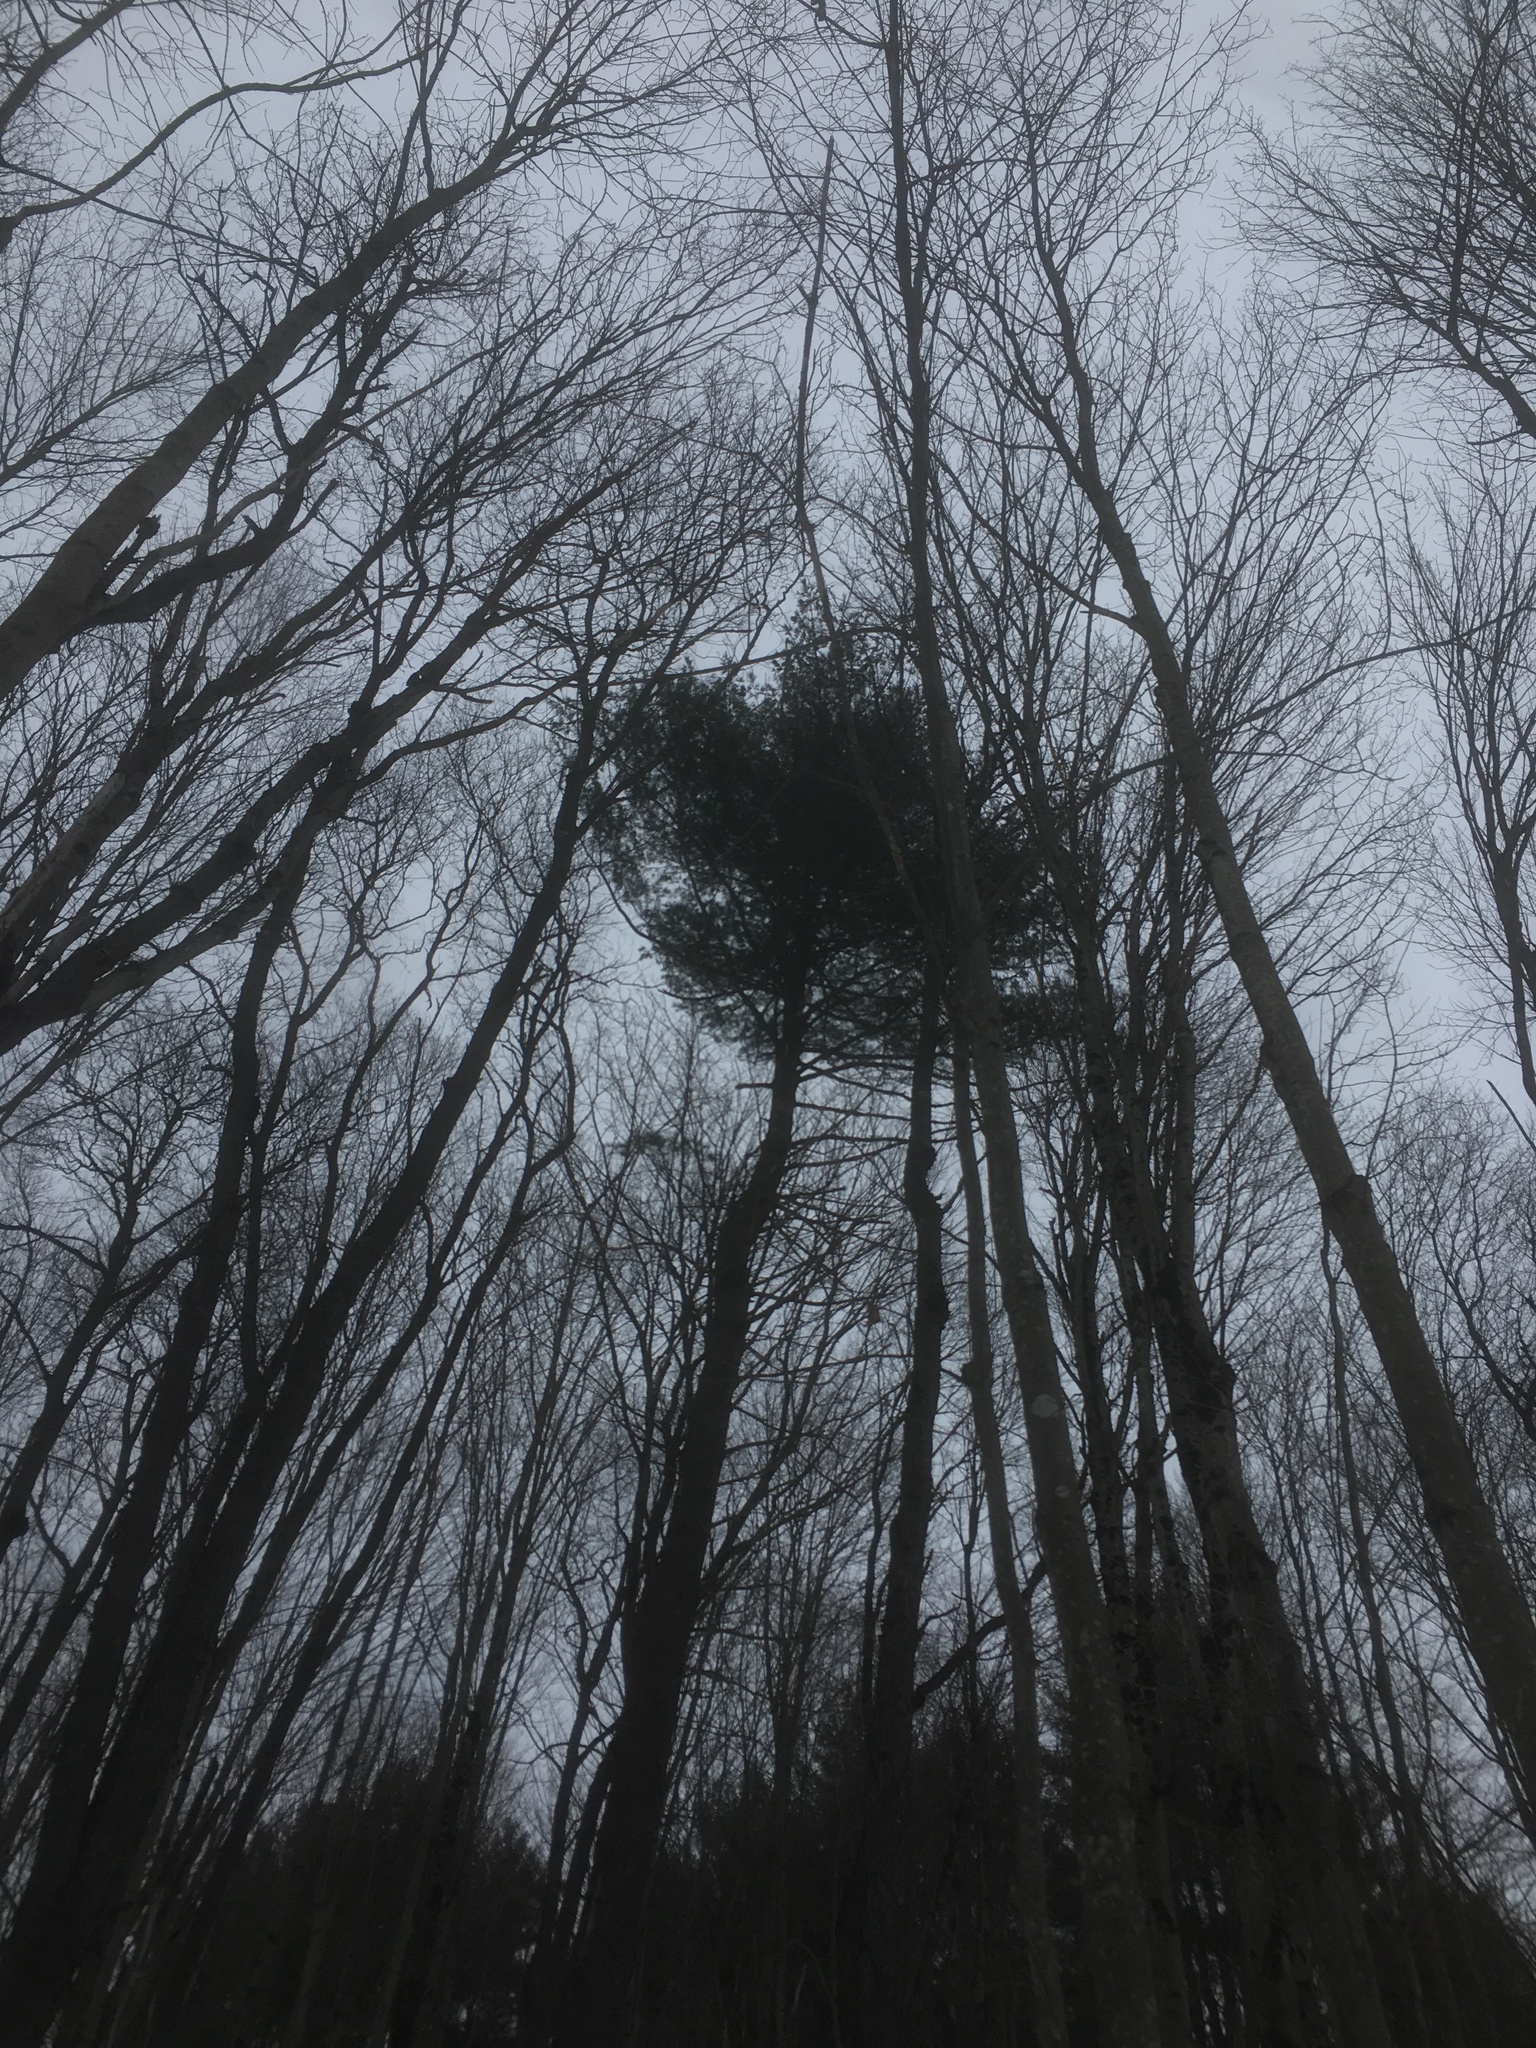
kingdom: Plantae
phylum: Tracheophyta
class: Pinopsida
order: Pinales
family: Pinaceae
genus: Pinus
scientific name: Pinus strobus
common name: Weymouth pine
